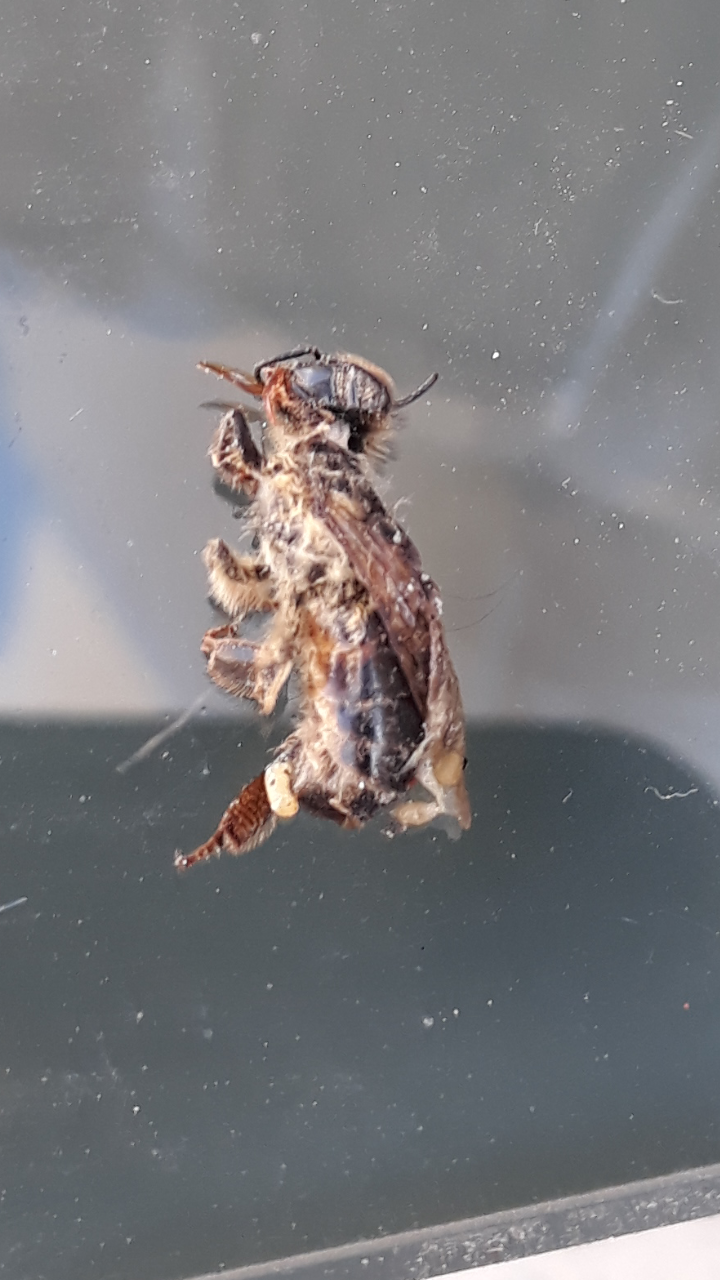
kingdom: Animalia
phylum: Arthropoda
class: Insecta
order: Hymenoptera
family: Apidae
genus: Apis
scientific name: Apis mellifera
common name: Honey bee
